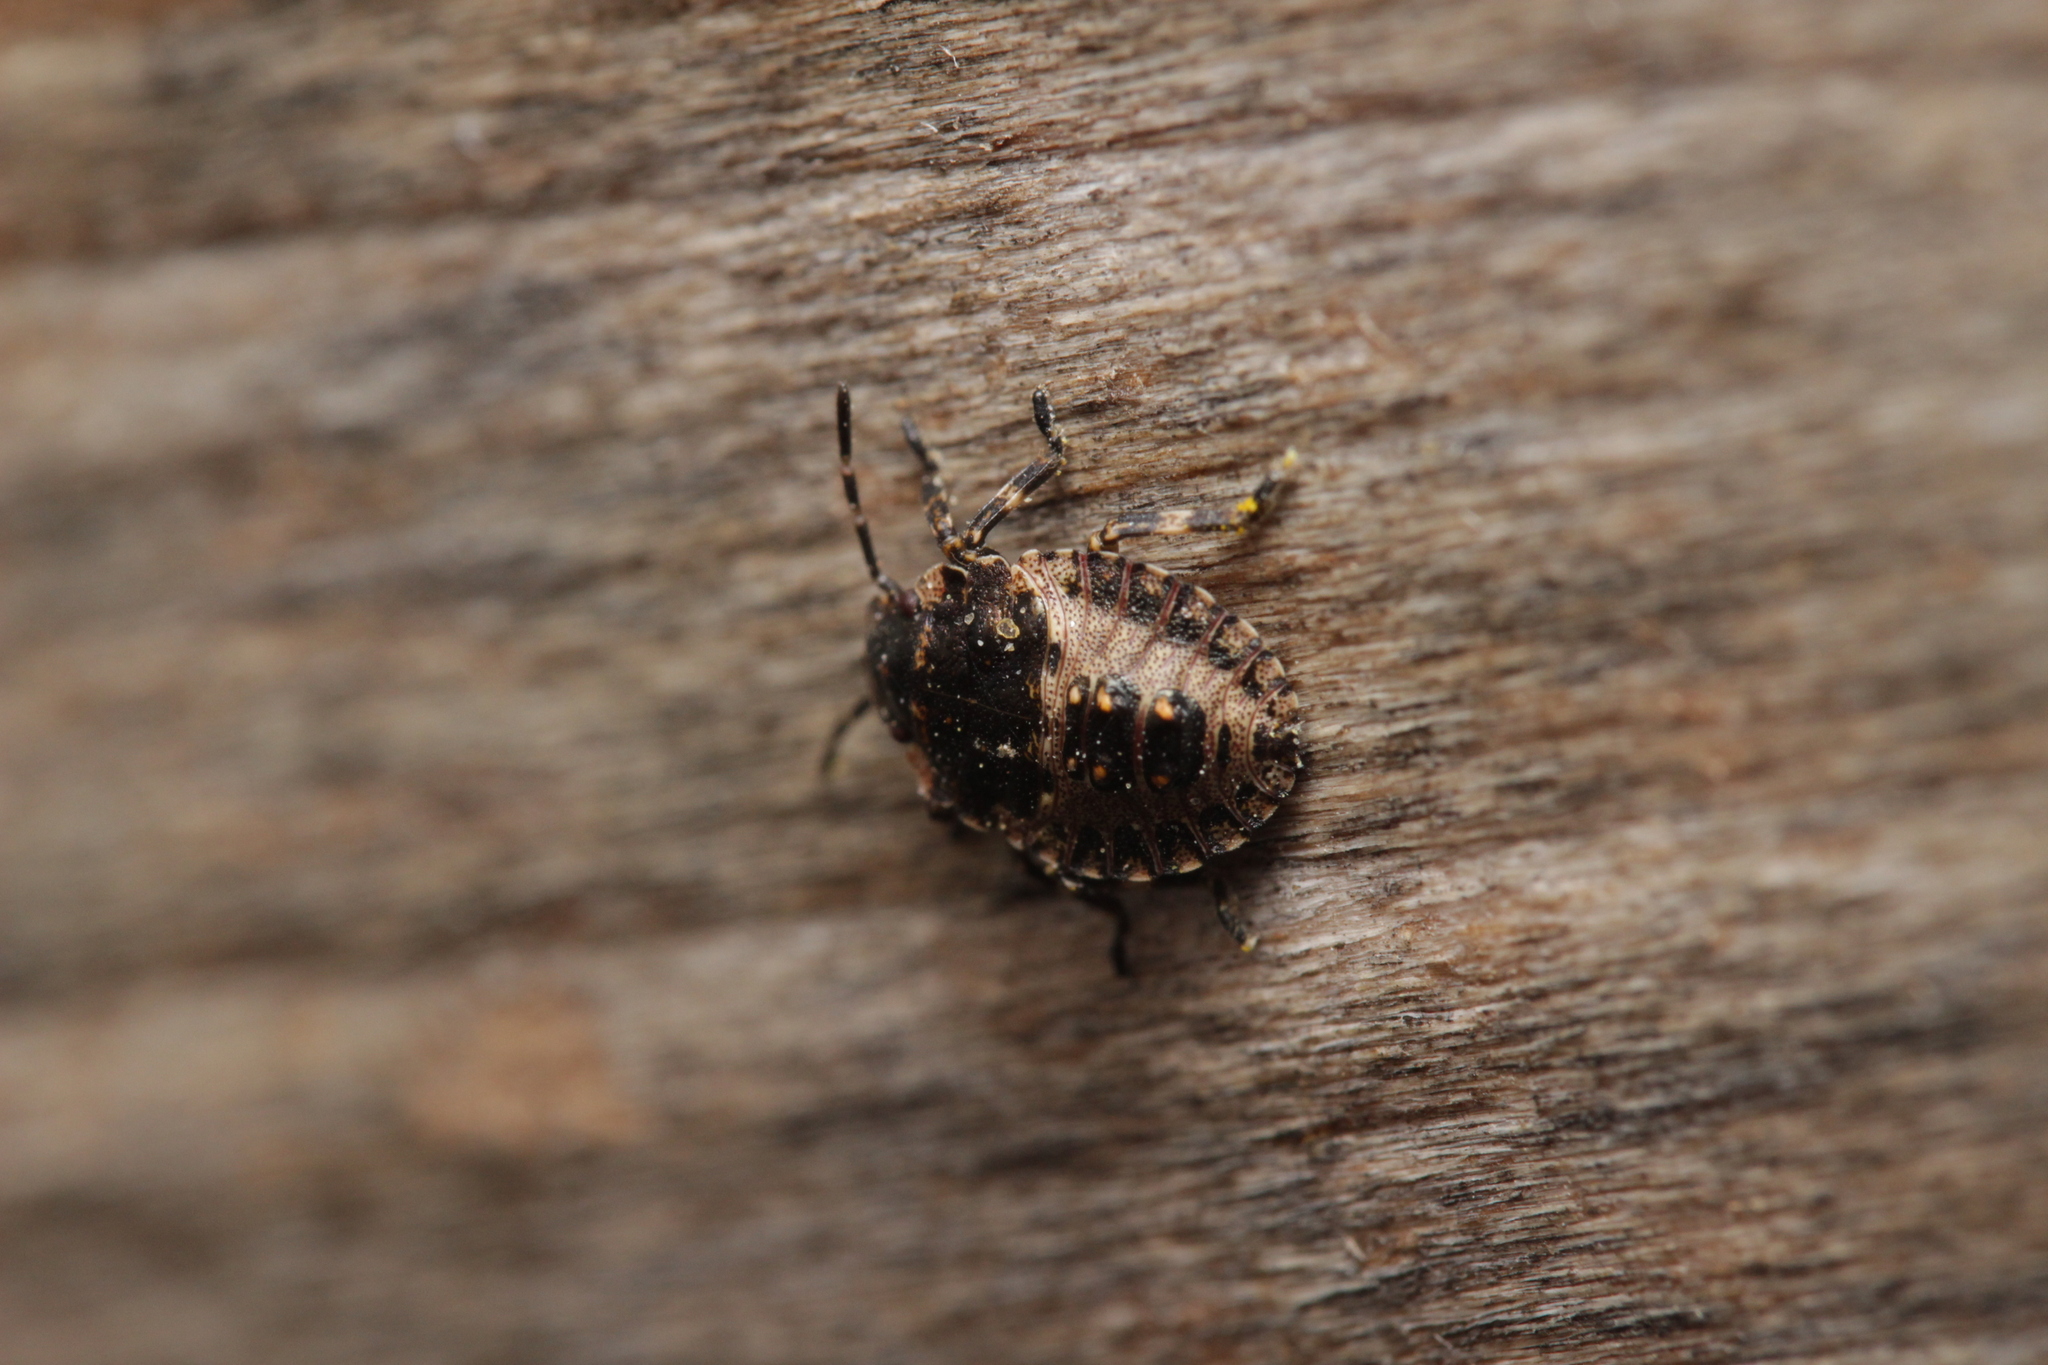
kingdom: Animalia
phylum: Arthropoda
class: Insecta
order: Hemiptera
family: Pentatomidae
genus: Pentatoma
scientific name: Pentatoma rufipes
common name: Forest bug
